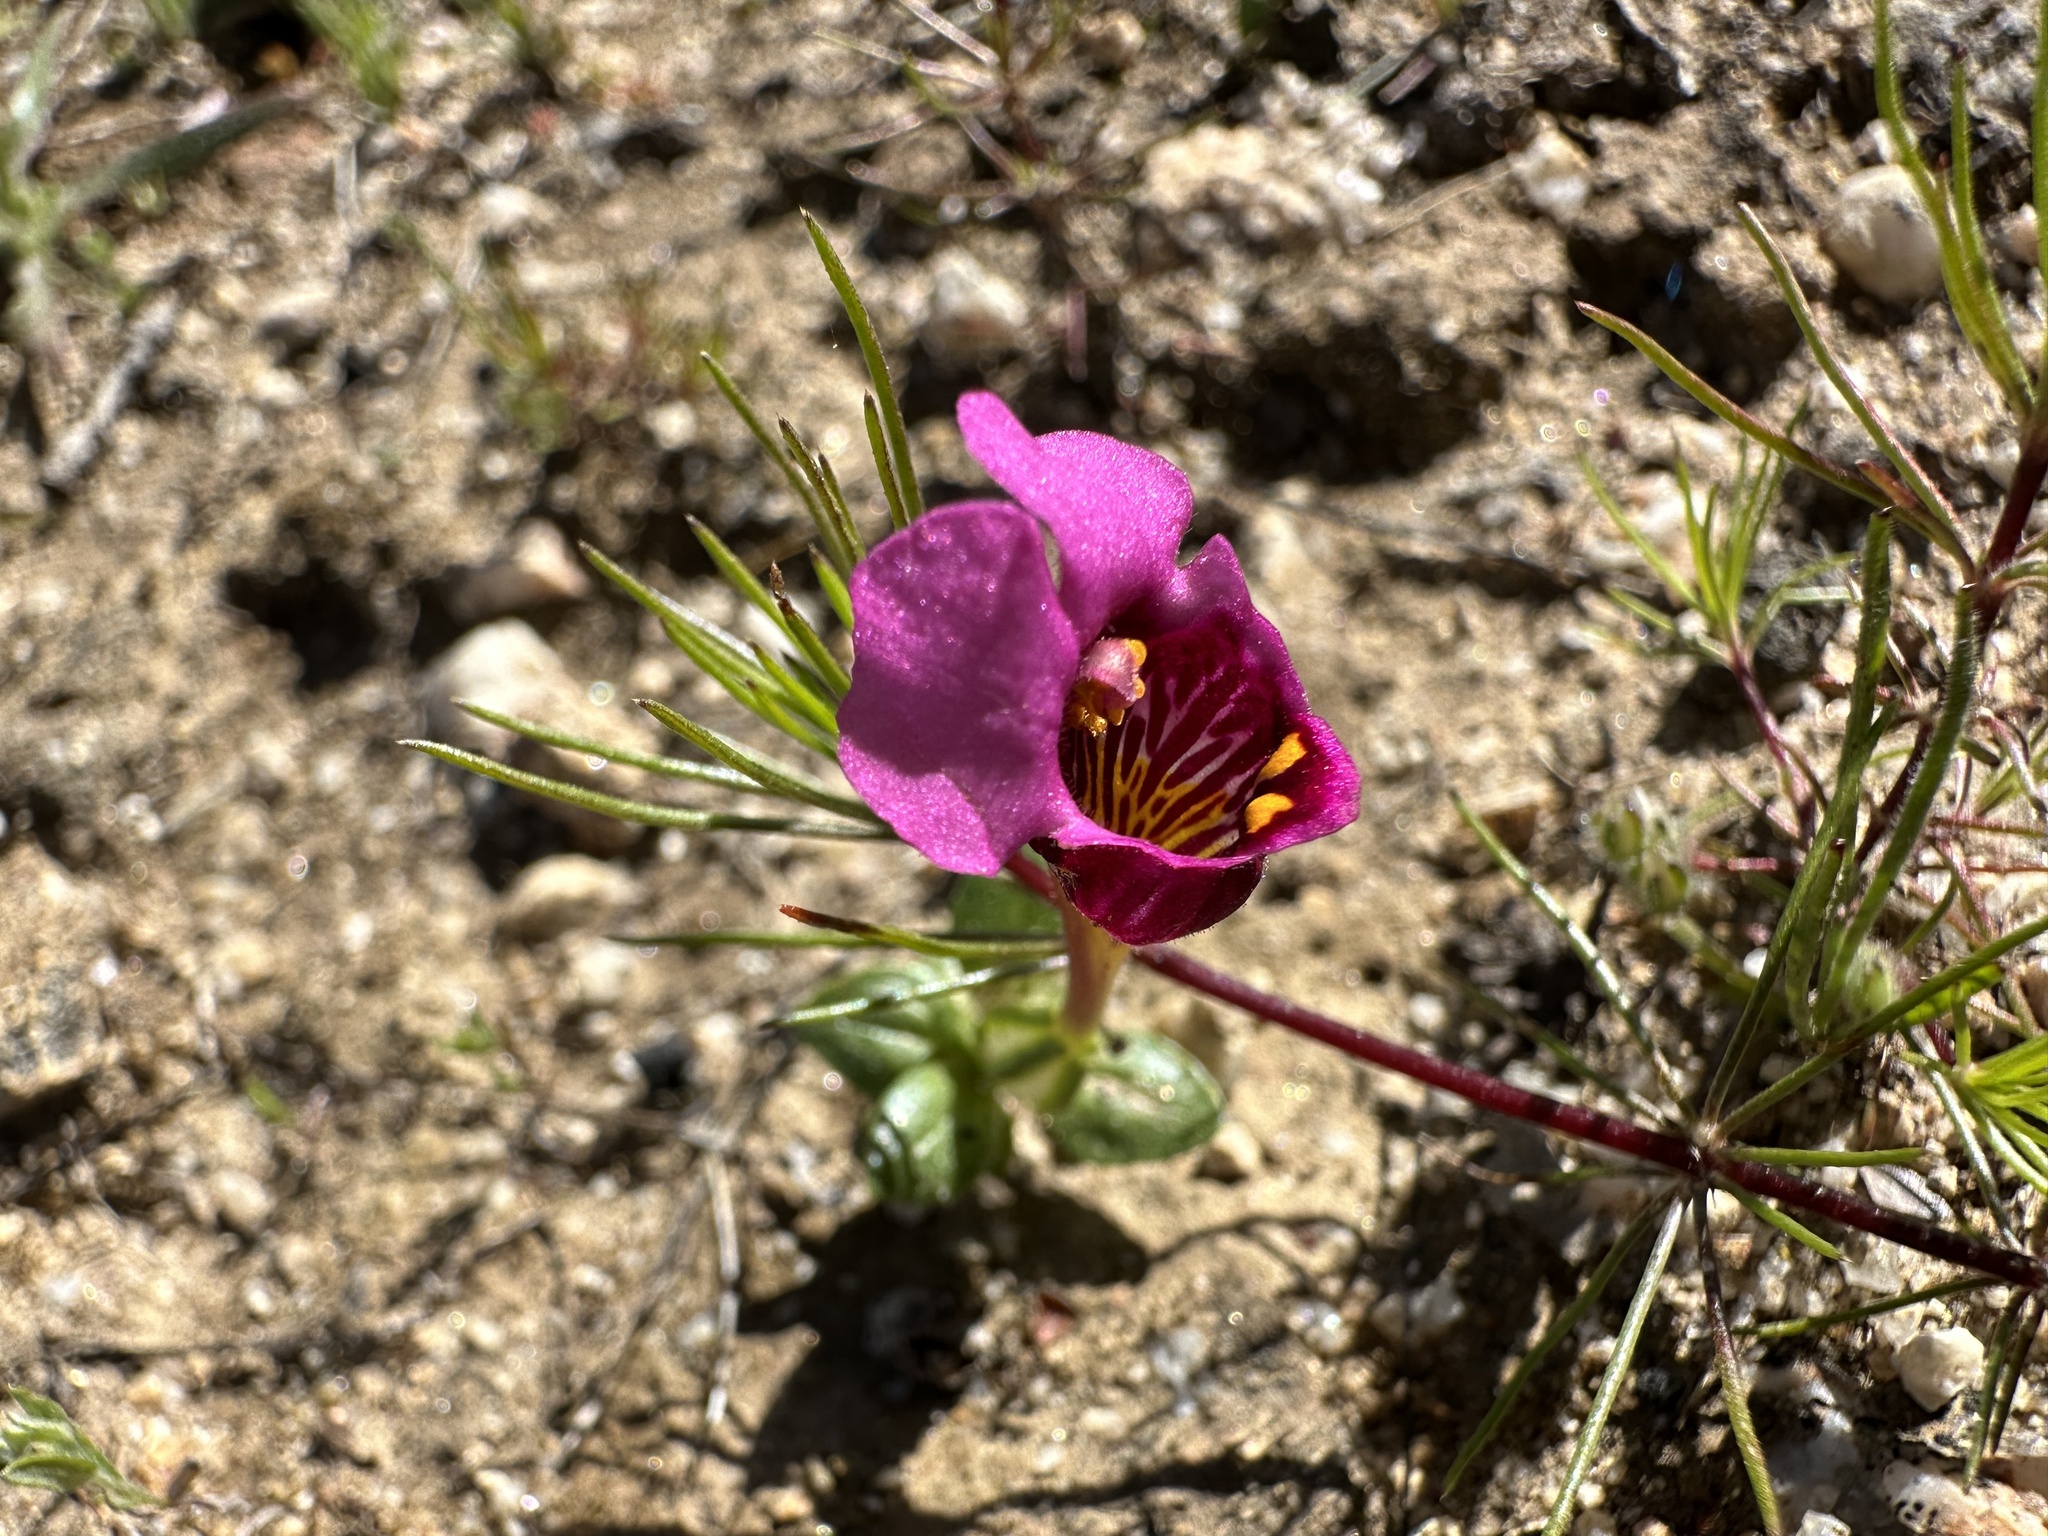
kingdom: Plantae
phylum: Tracheophyta
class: Magnoliopsida
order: Lamiales
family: Phrymaceae
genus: Diplacus
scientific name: Diplacus douglasii
